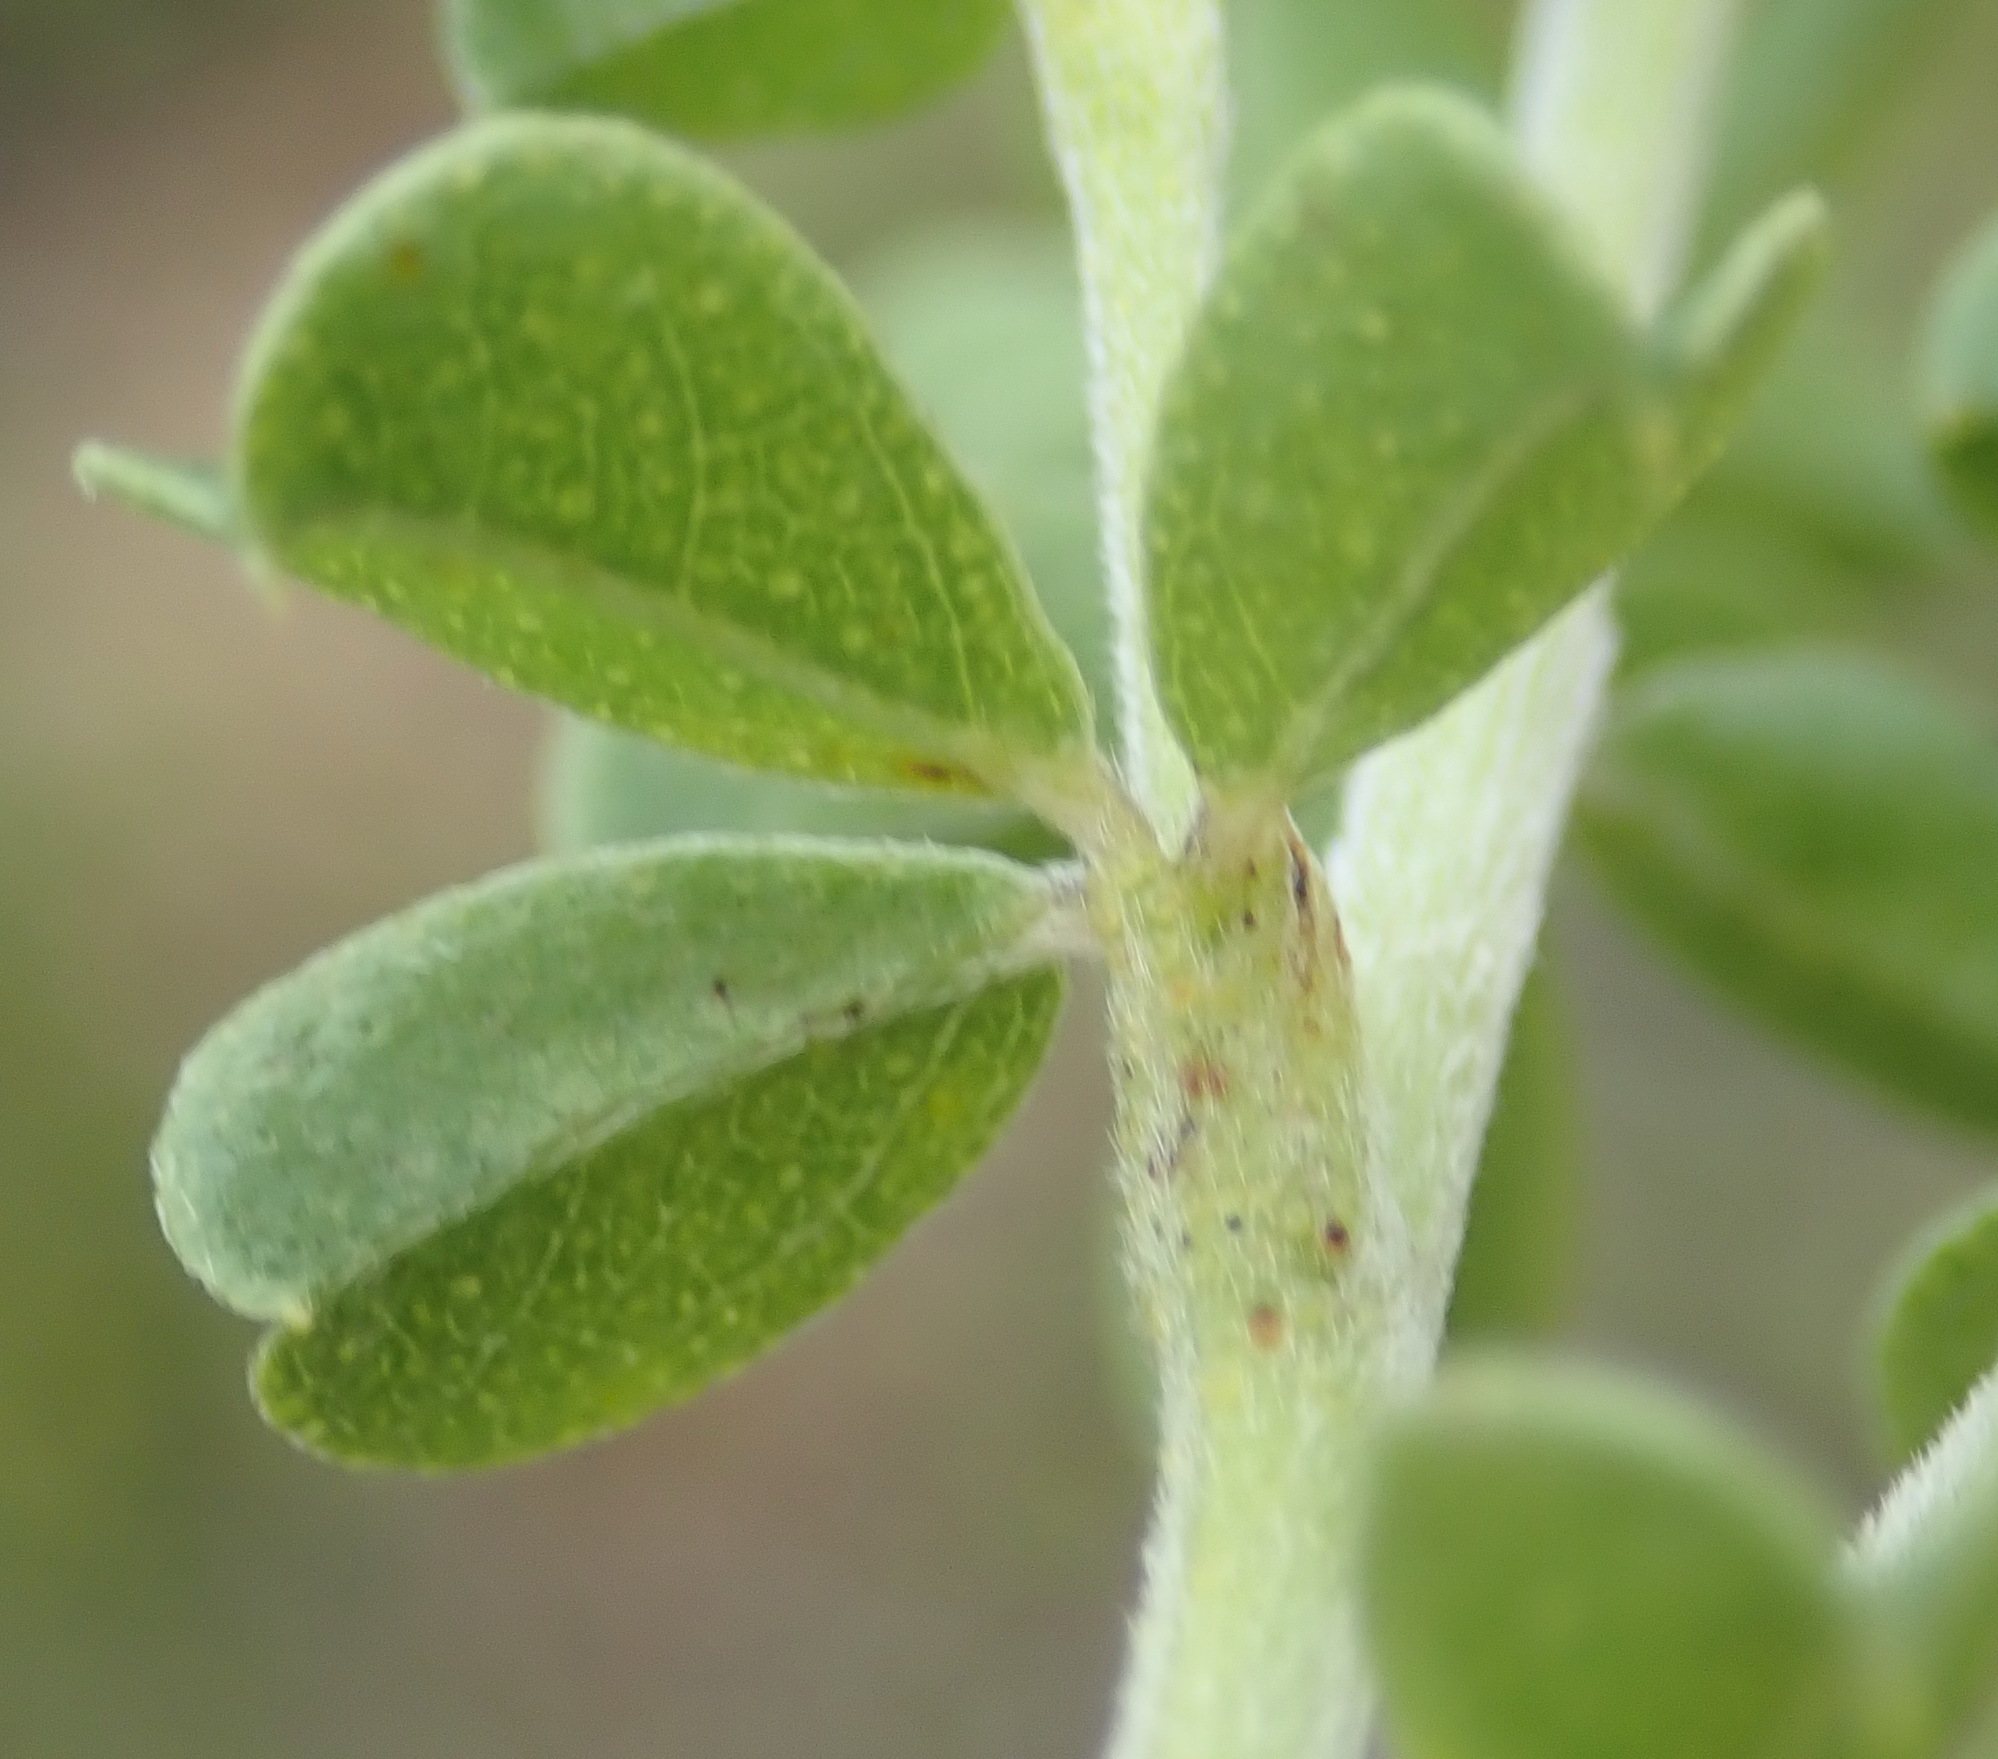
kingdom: Plantae
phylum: Tracheophyta
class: Magnoliopsida
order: Fabales
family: Fabaceae
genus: Psoralea
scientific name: Psoralea stachyera
